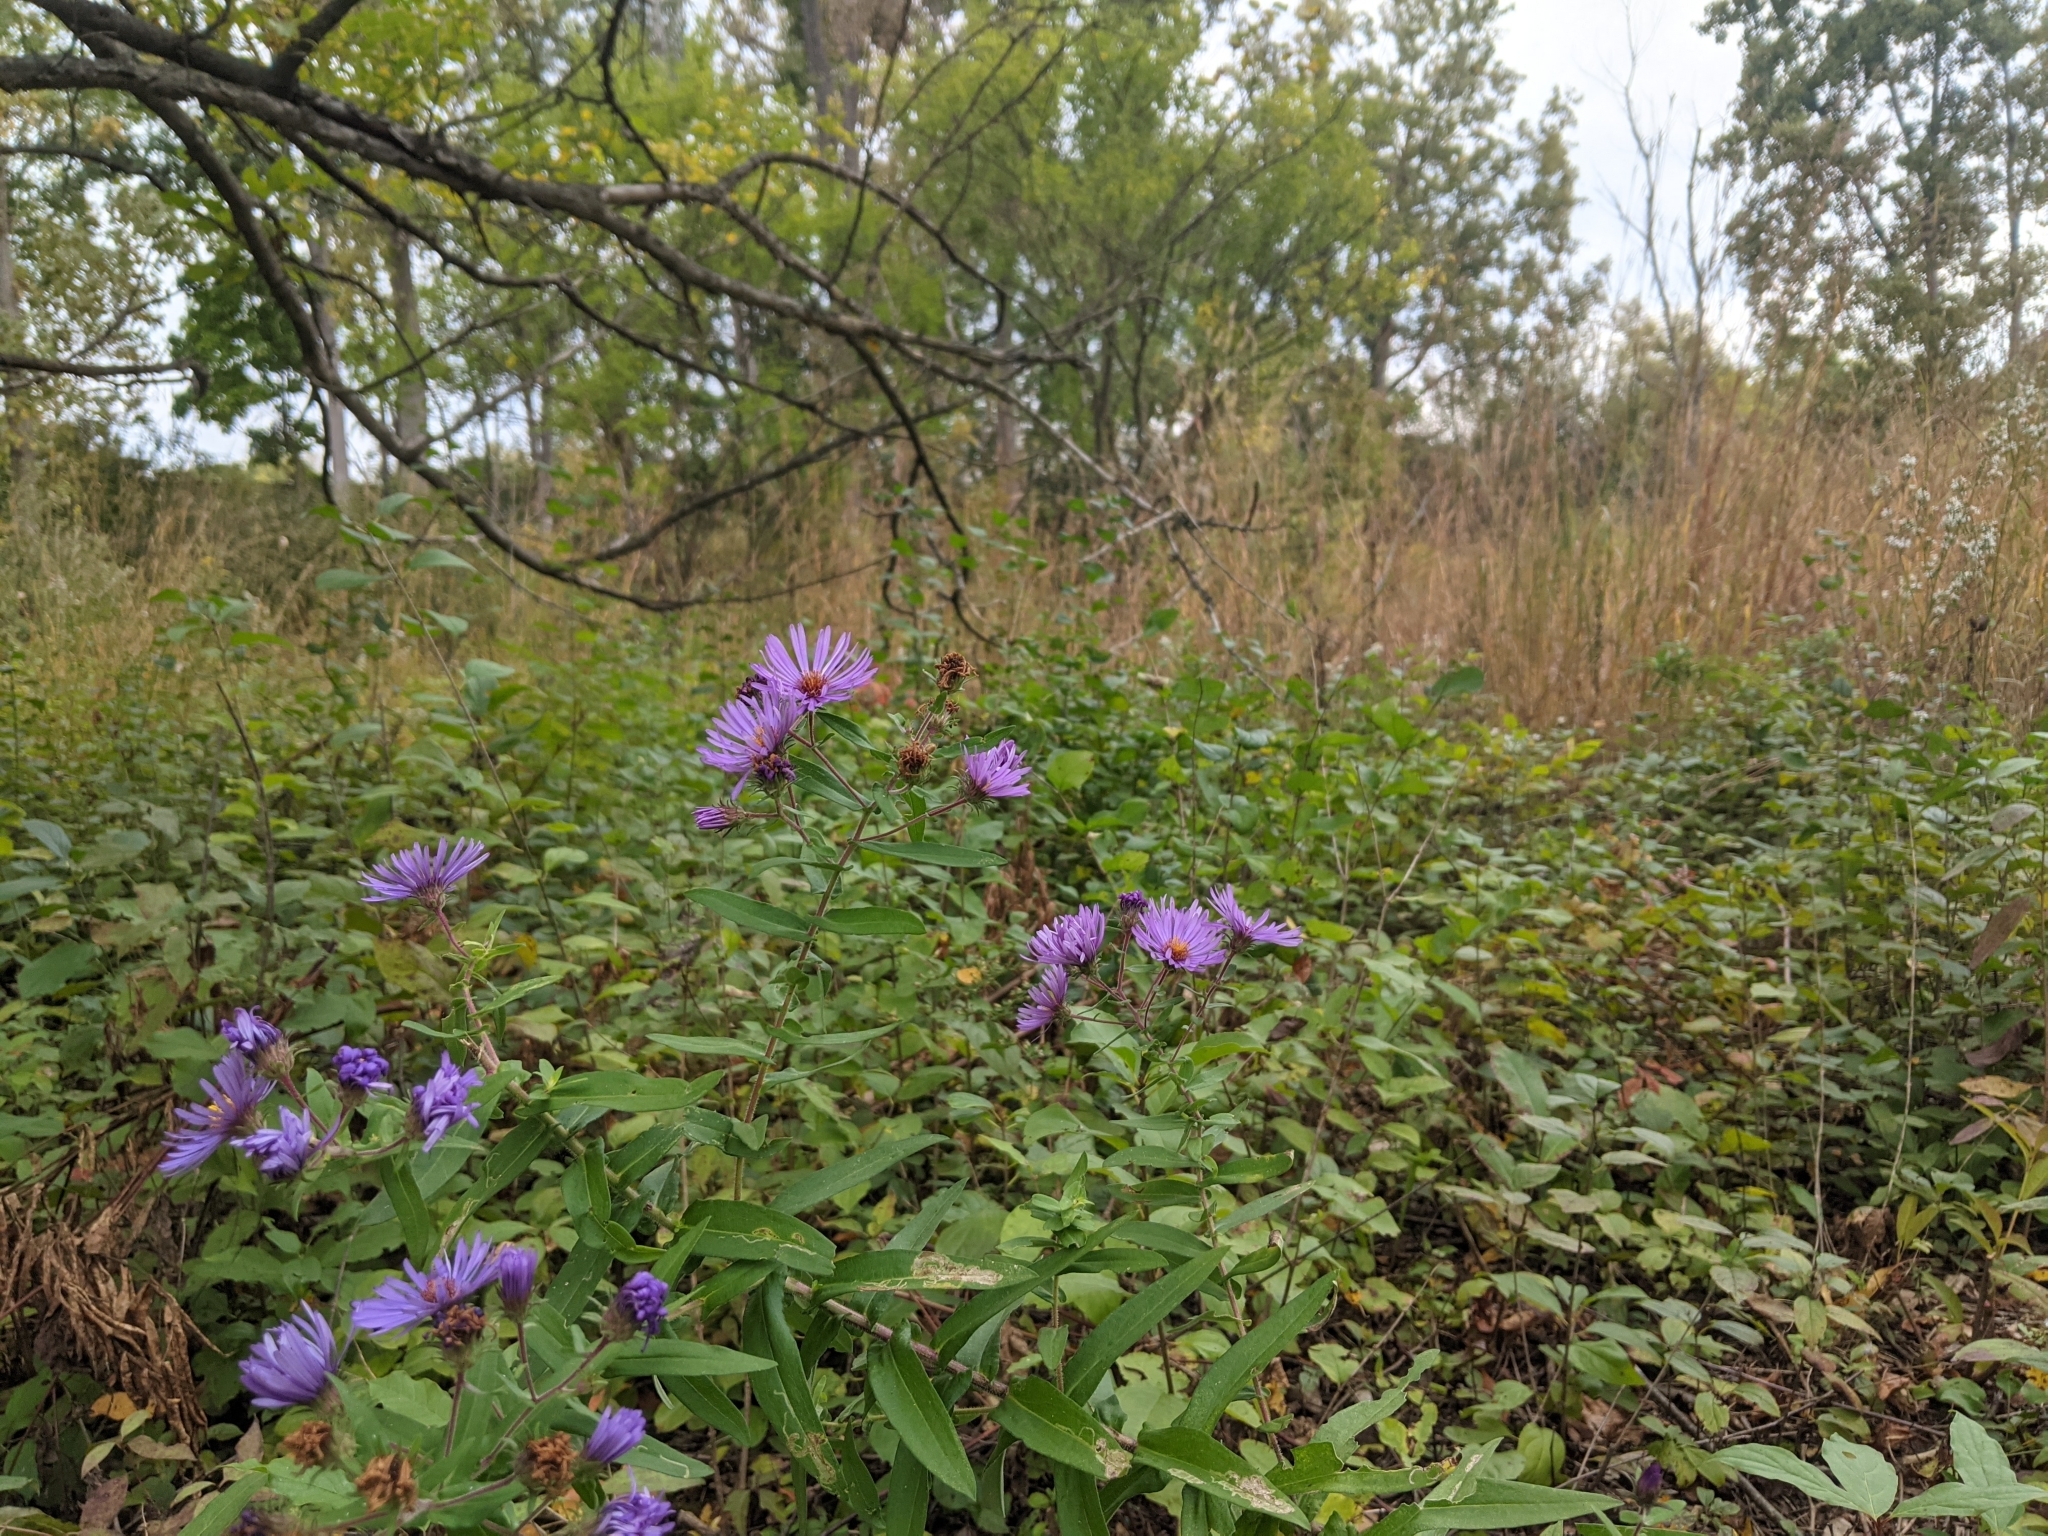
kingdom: Plantae
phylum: Tracheophyta
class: Magnoliopsida
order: Asterales
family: Asteraceae
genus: Symphyotrichum
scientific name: Symphyotrichum novae-angliae
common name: Michaelmas daisy
